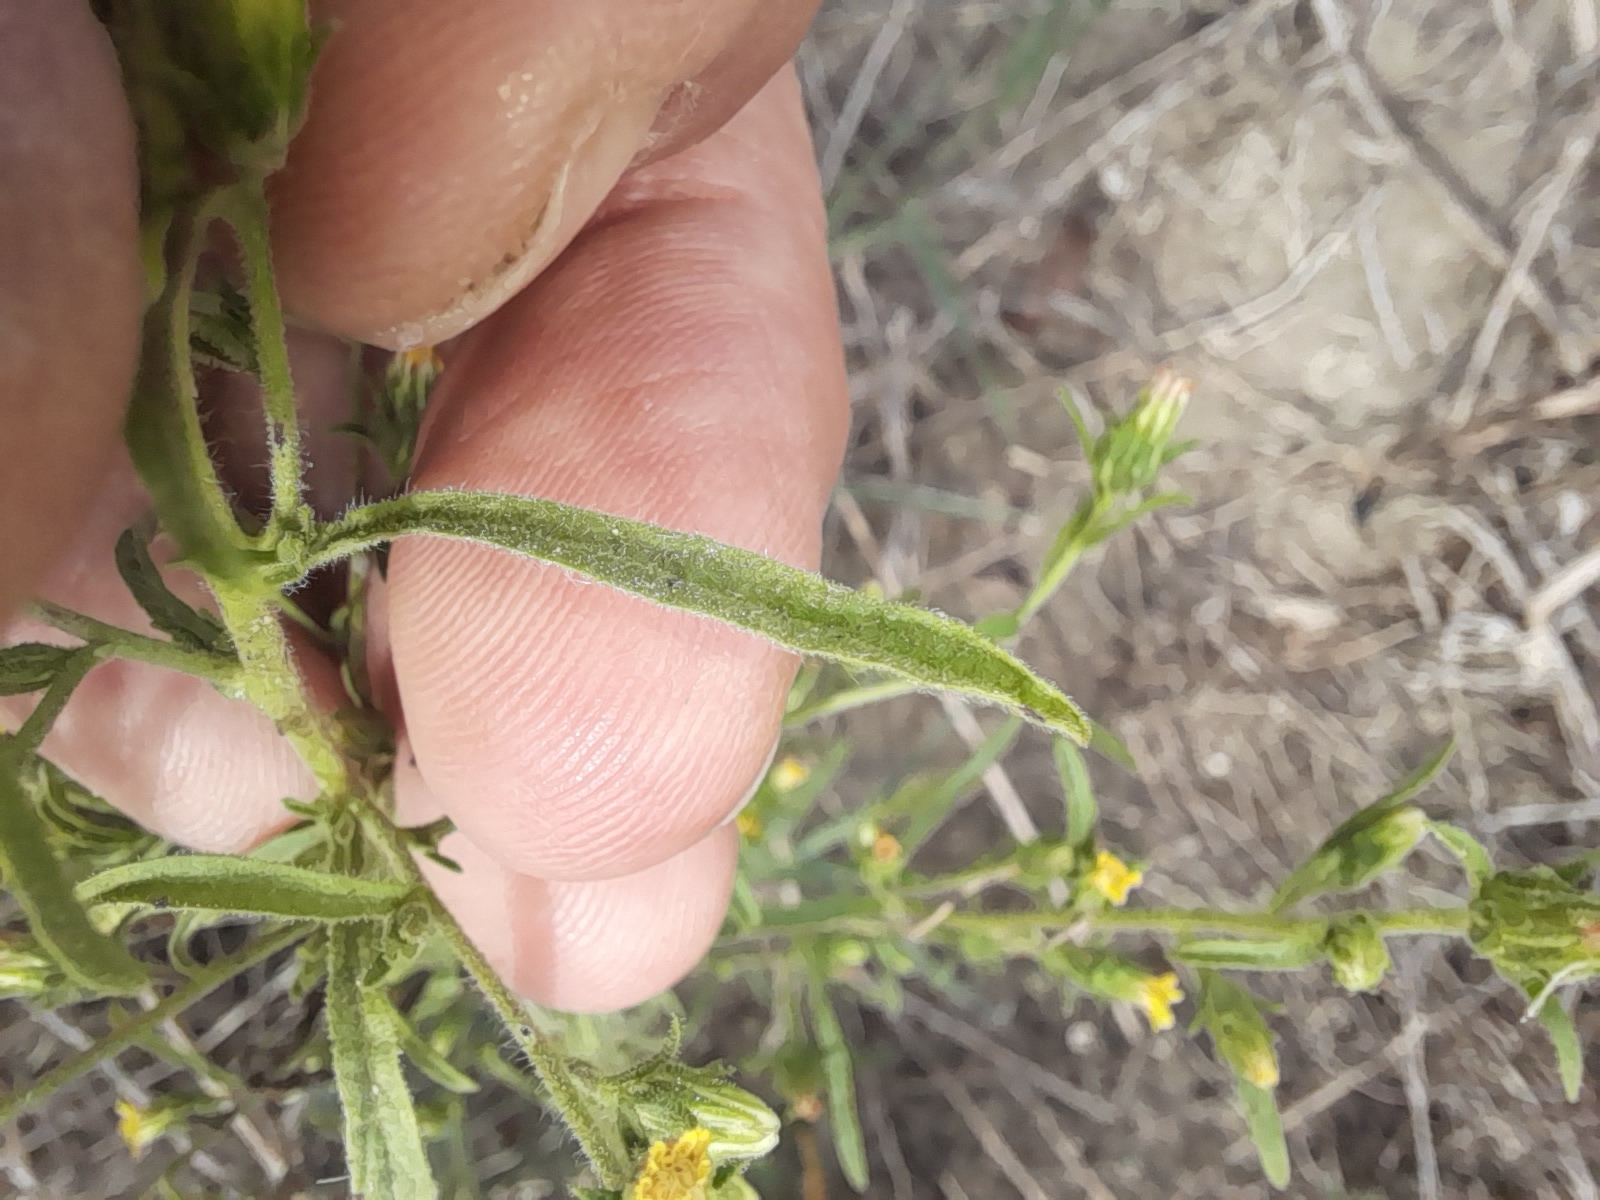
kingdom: Plantae
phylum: Tracheophyta
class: Magnoliopsida
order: Asterales
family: Asteraceae
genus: Dittrichia
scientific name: Dittrichia graveolens
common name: Stinking fleabane
